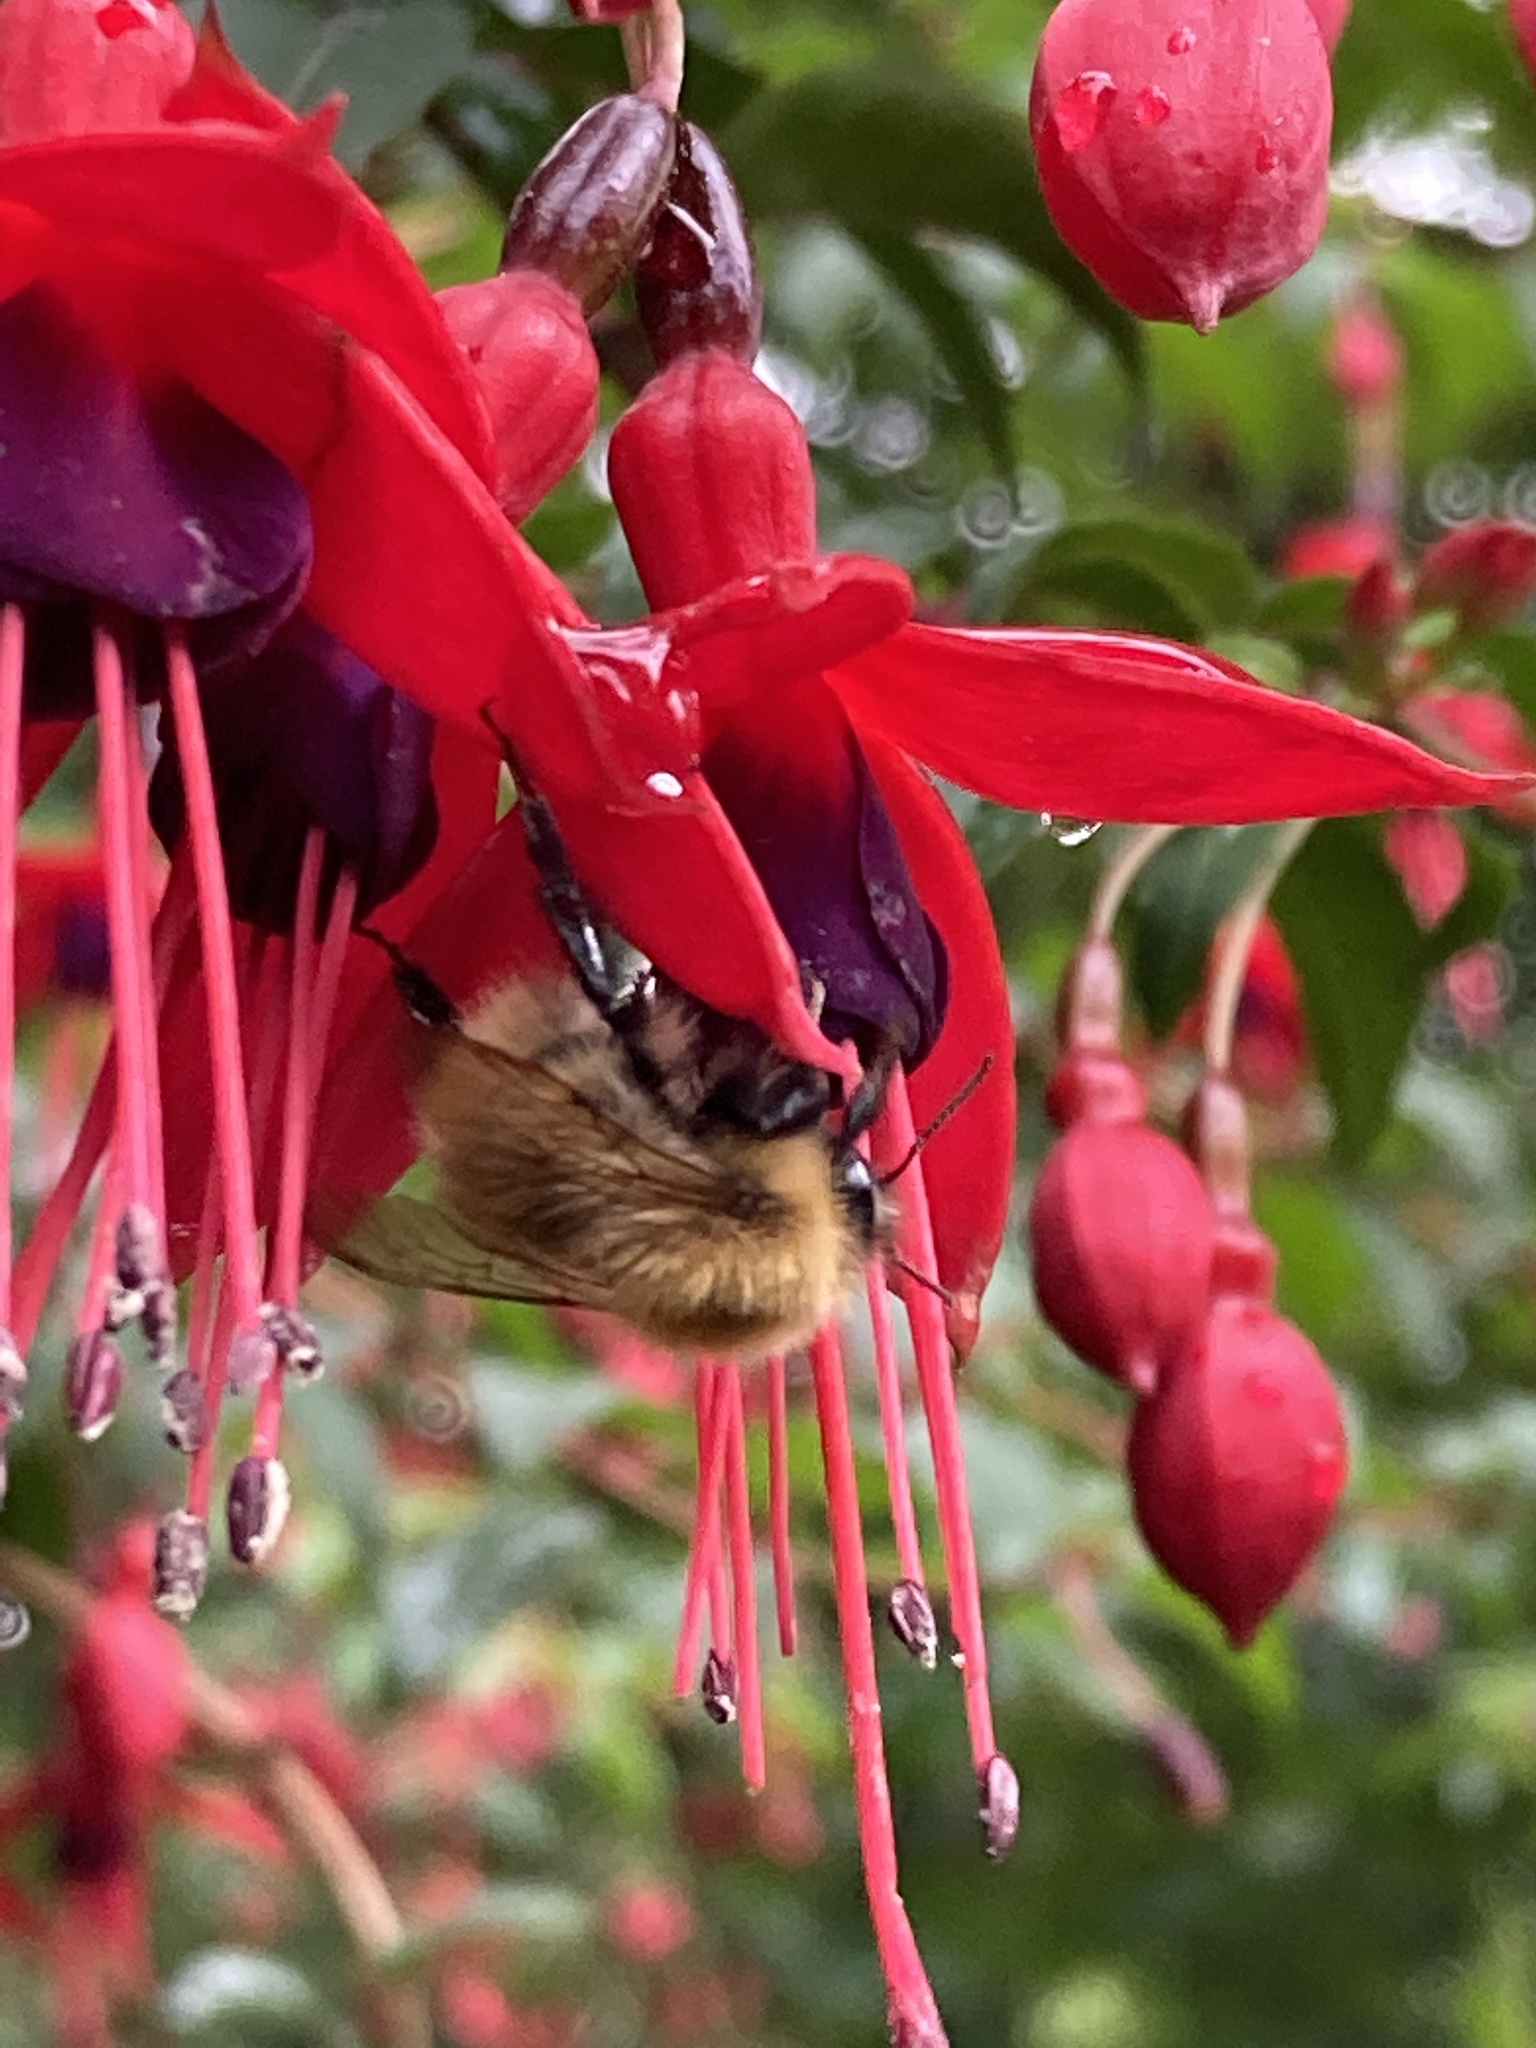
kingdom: Animalia
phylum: Arthropoda
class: Insecta
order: Hymenoptera
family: Apidae
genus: Bombus
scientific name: Bombus pascuorum
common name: Common carder bee
